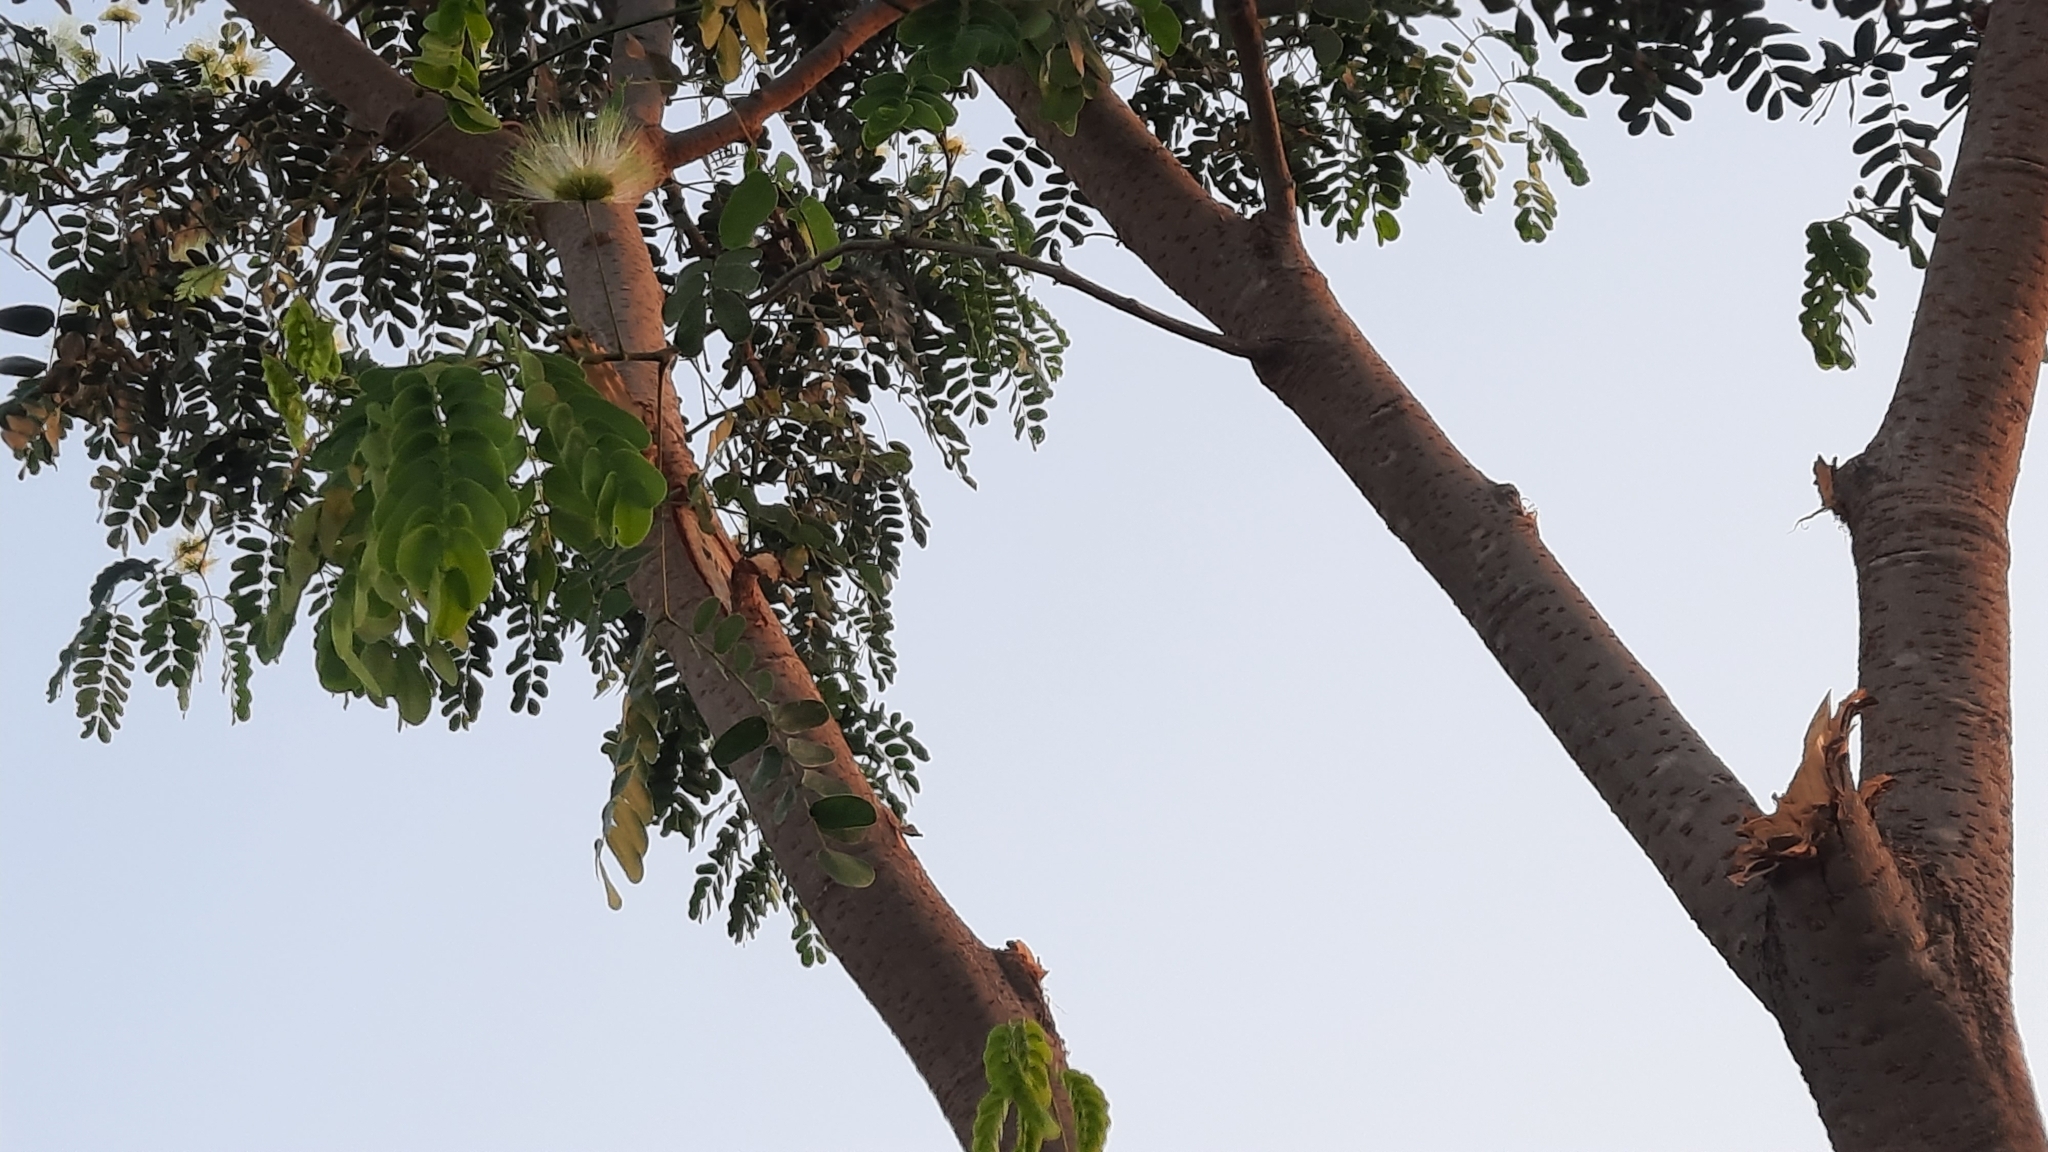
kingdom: Plantae
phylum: Tracheophyta
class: Magnoliopsida
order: Fabales
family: Fabaceae
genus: Albizia
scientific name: Albizia lebbeck
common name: Woman's tongue
